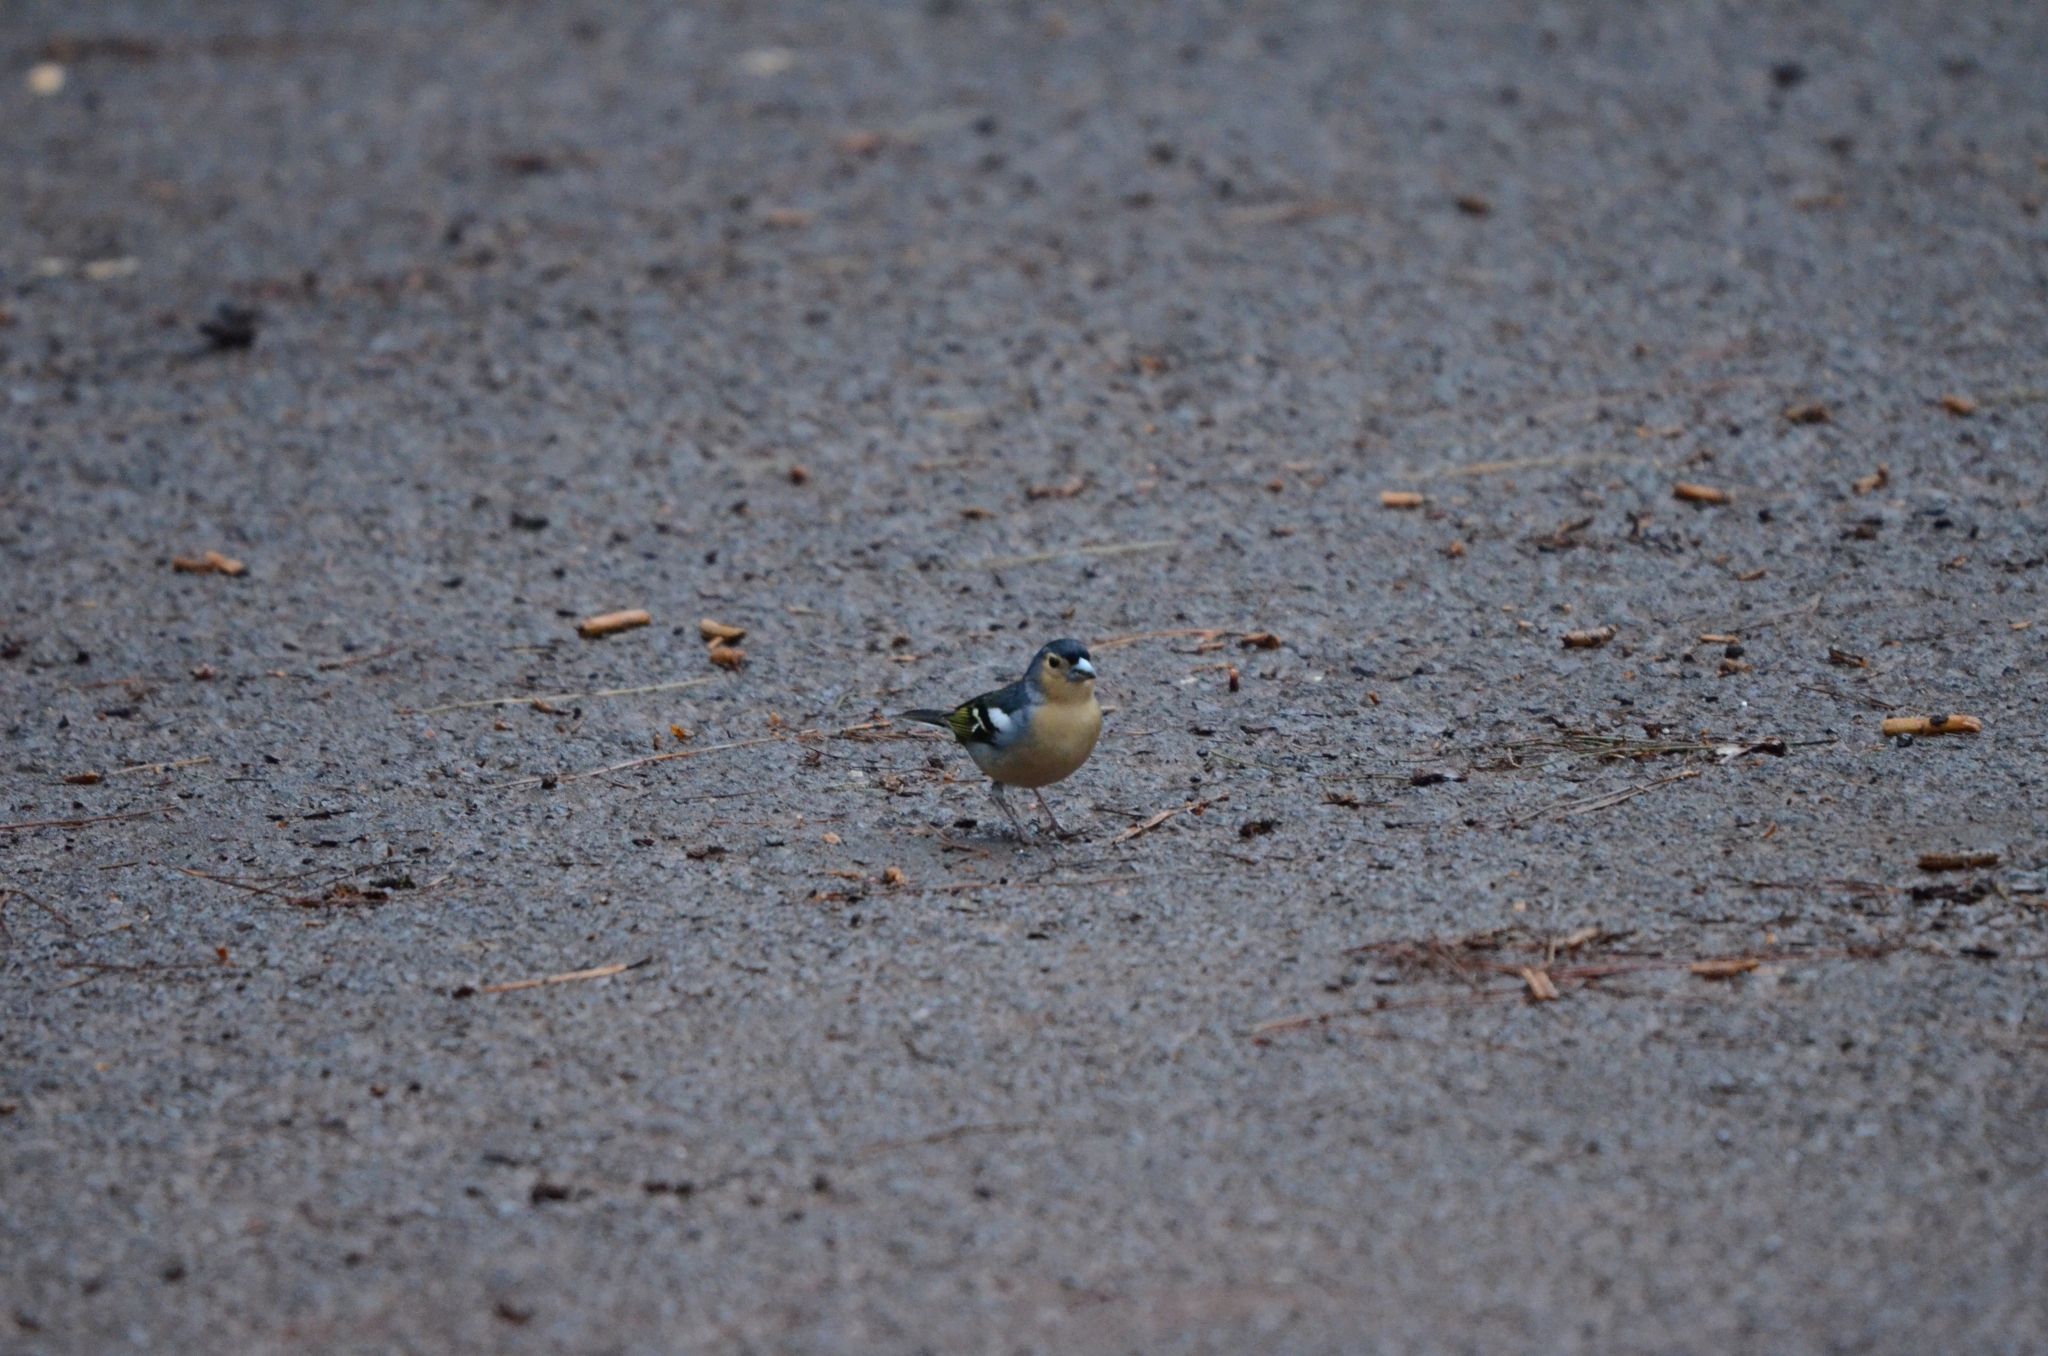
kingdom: Animalia
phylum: Chordata
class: Aves
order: Passeriformes
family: Fringillidae
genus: Fringilla
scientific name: Fringilla canariensis
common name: Canary islands chaffinch
